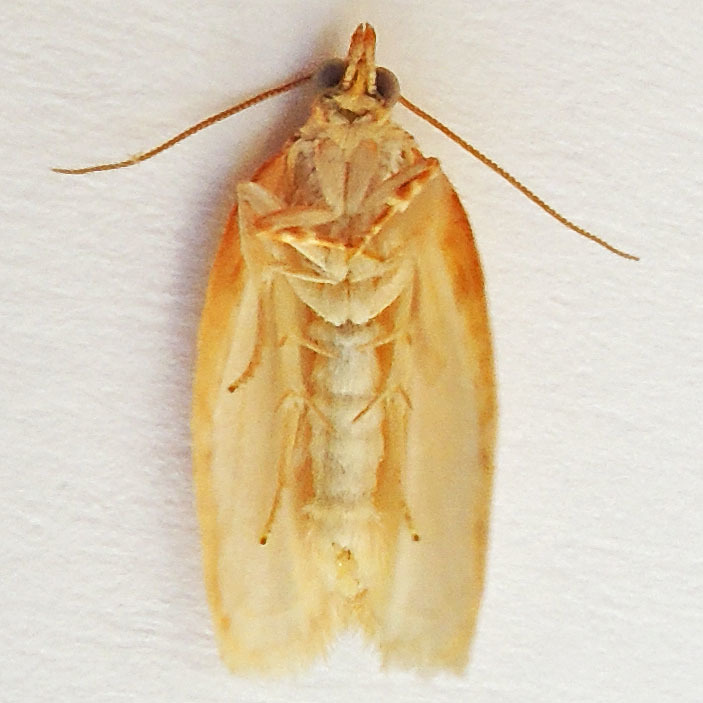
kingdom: Animalia
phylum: Arthropoda
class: Insecta
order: Lepidoptera
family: Tortricidae
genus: Argyrotaenia
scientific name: Argyrotaenia quercifoliana
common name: Yellow-winged oak leafroller moth
